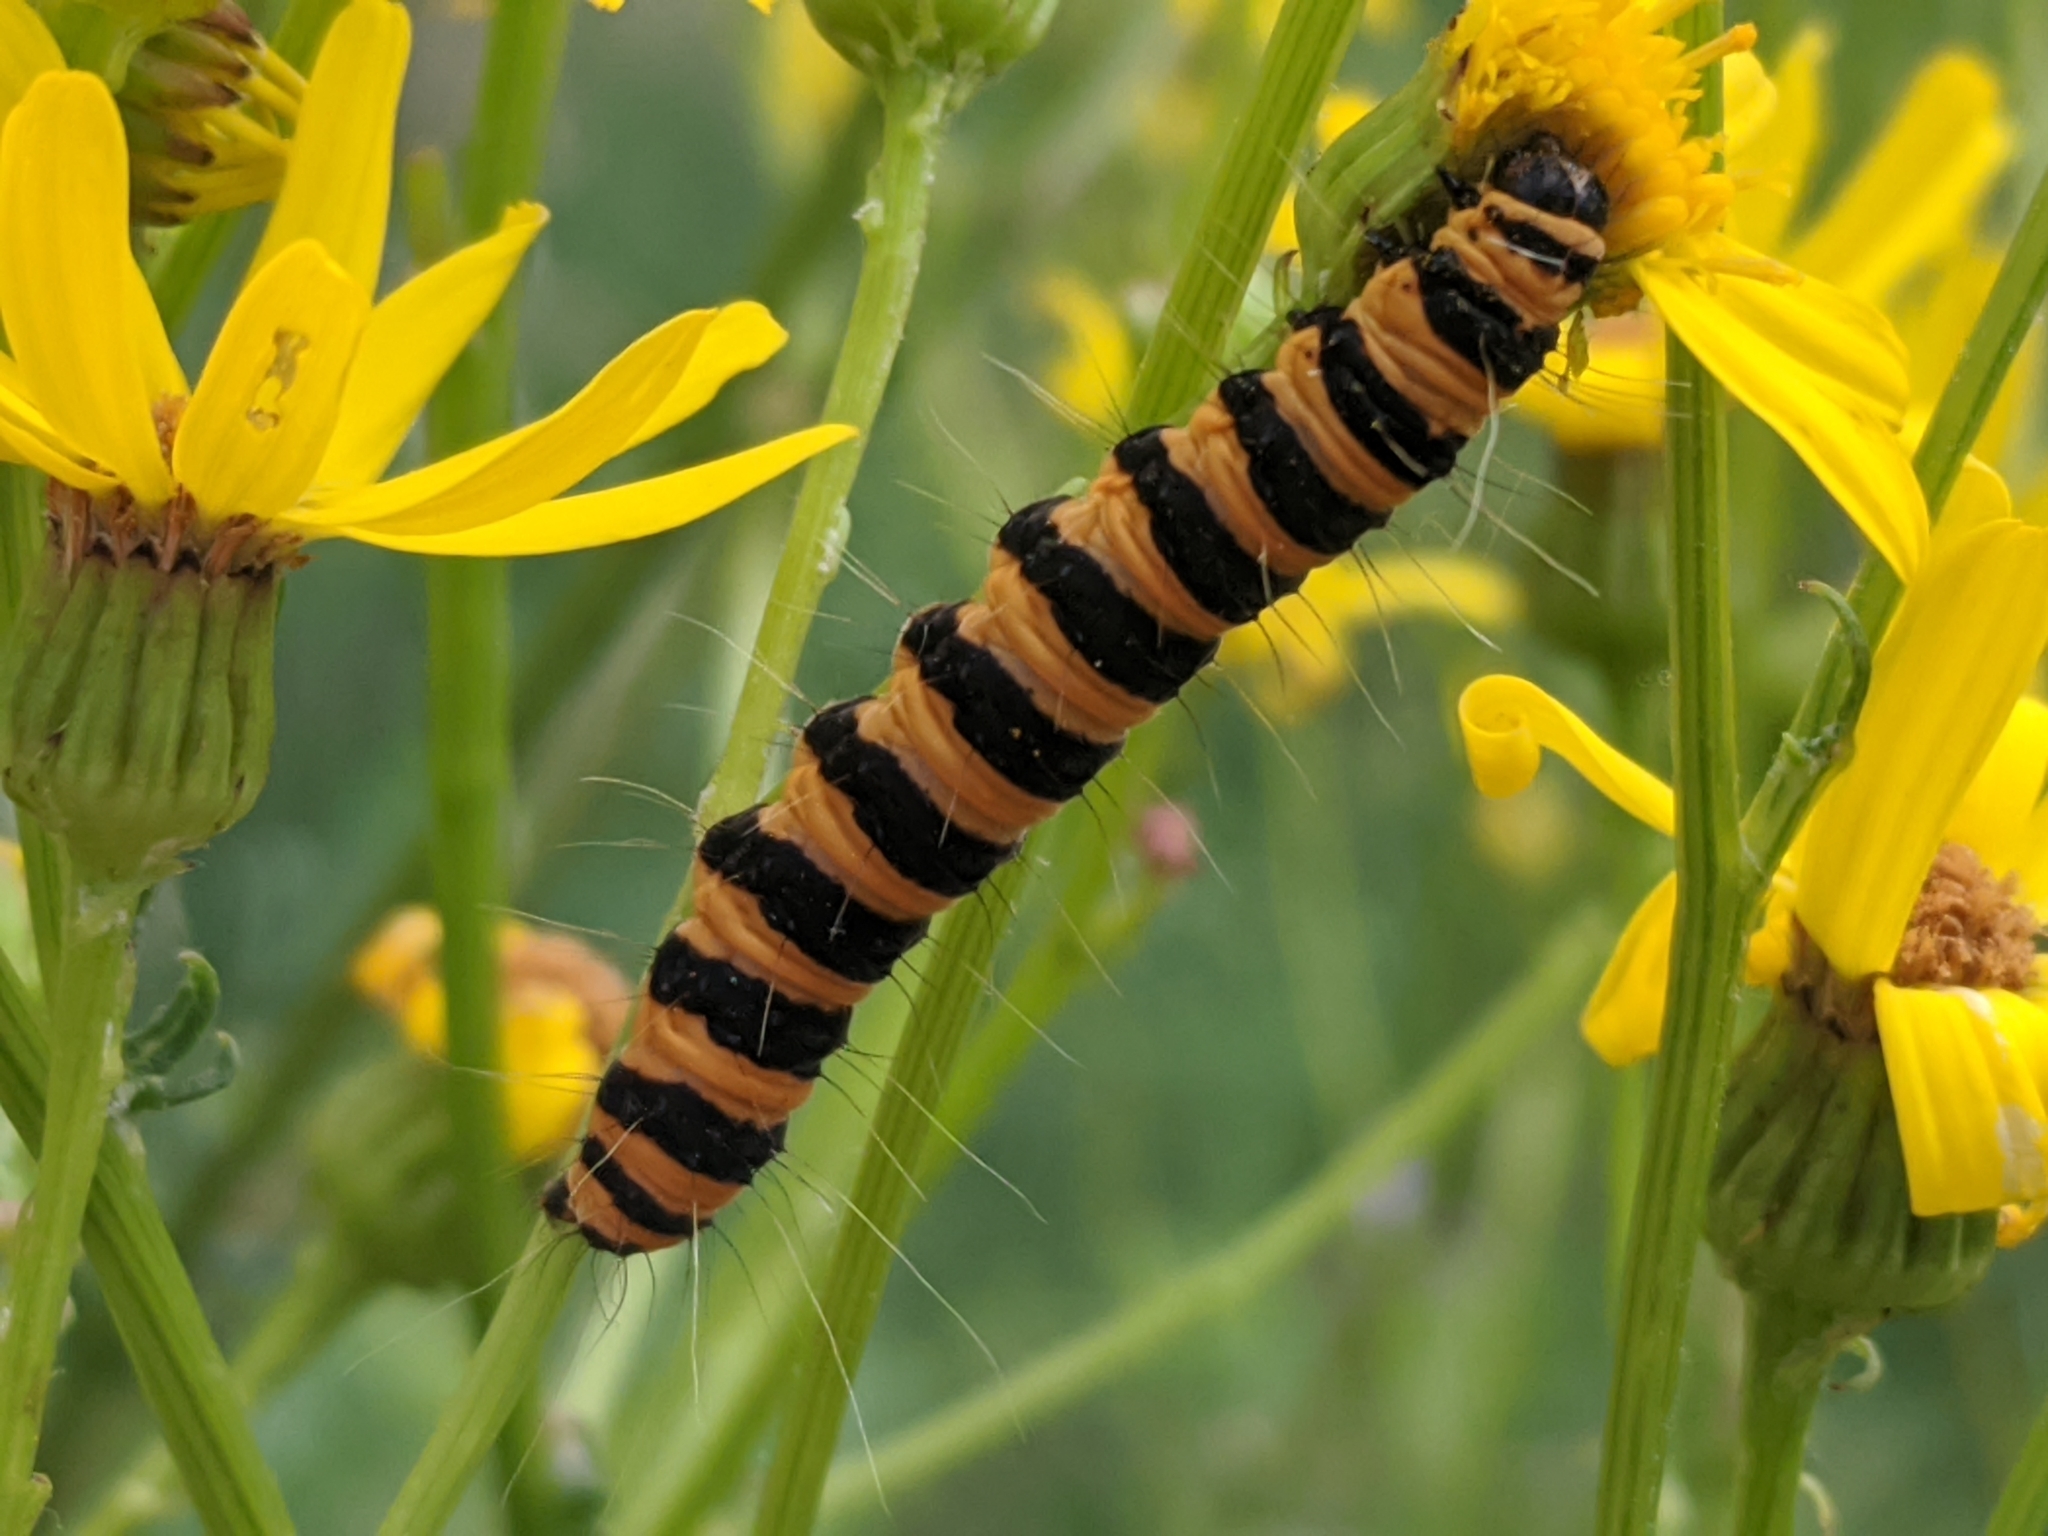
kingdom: Animalia
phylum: Arthropoda
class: Insecta
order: Lepidoptera
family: Erebidae
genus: Tyria
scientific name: Tyria jacobaeae
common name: Cinnabar
